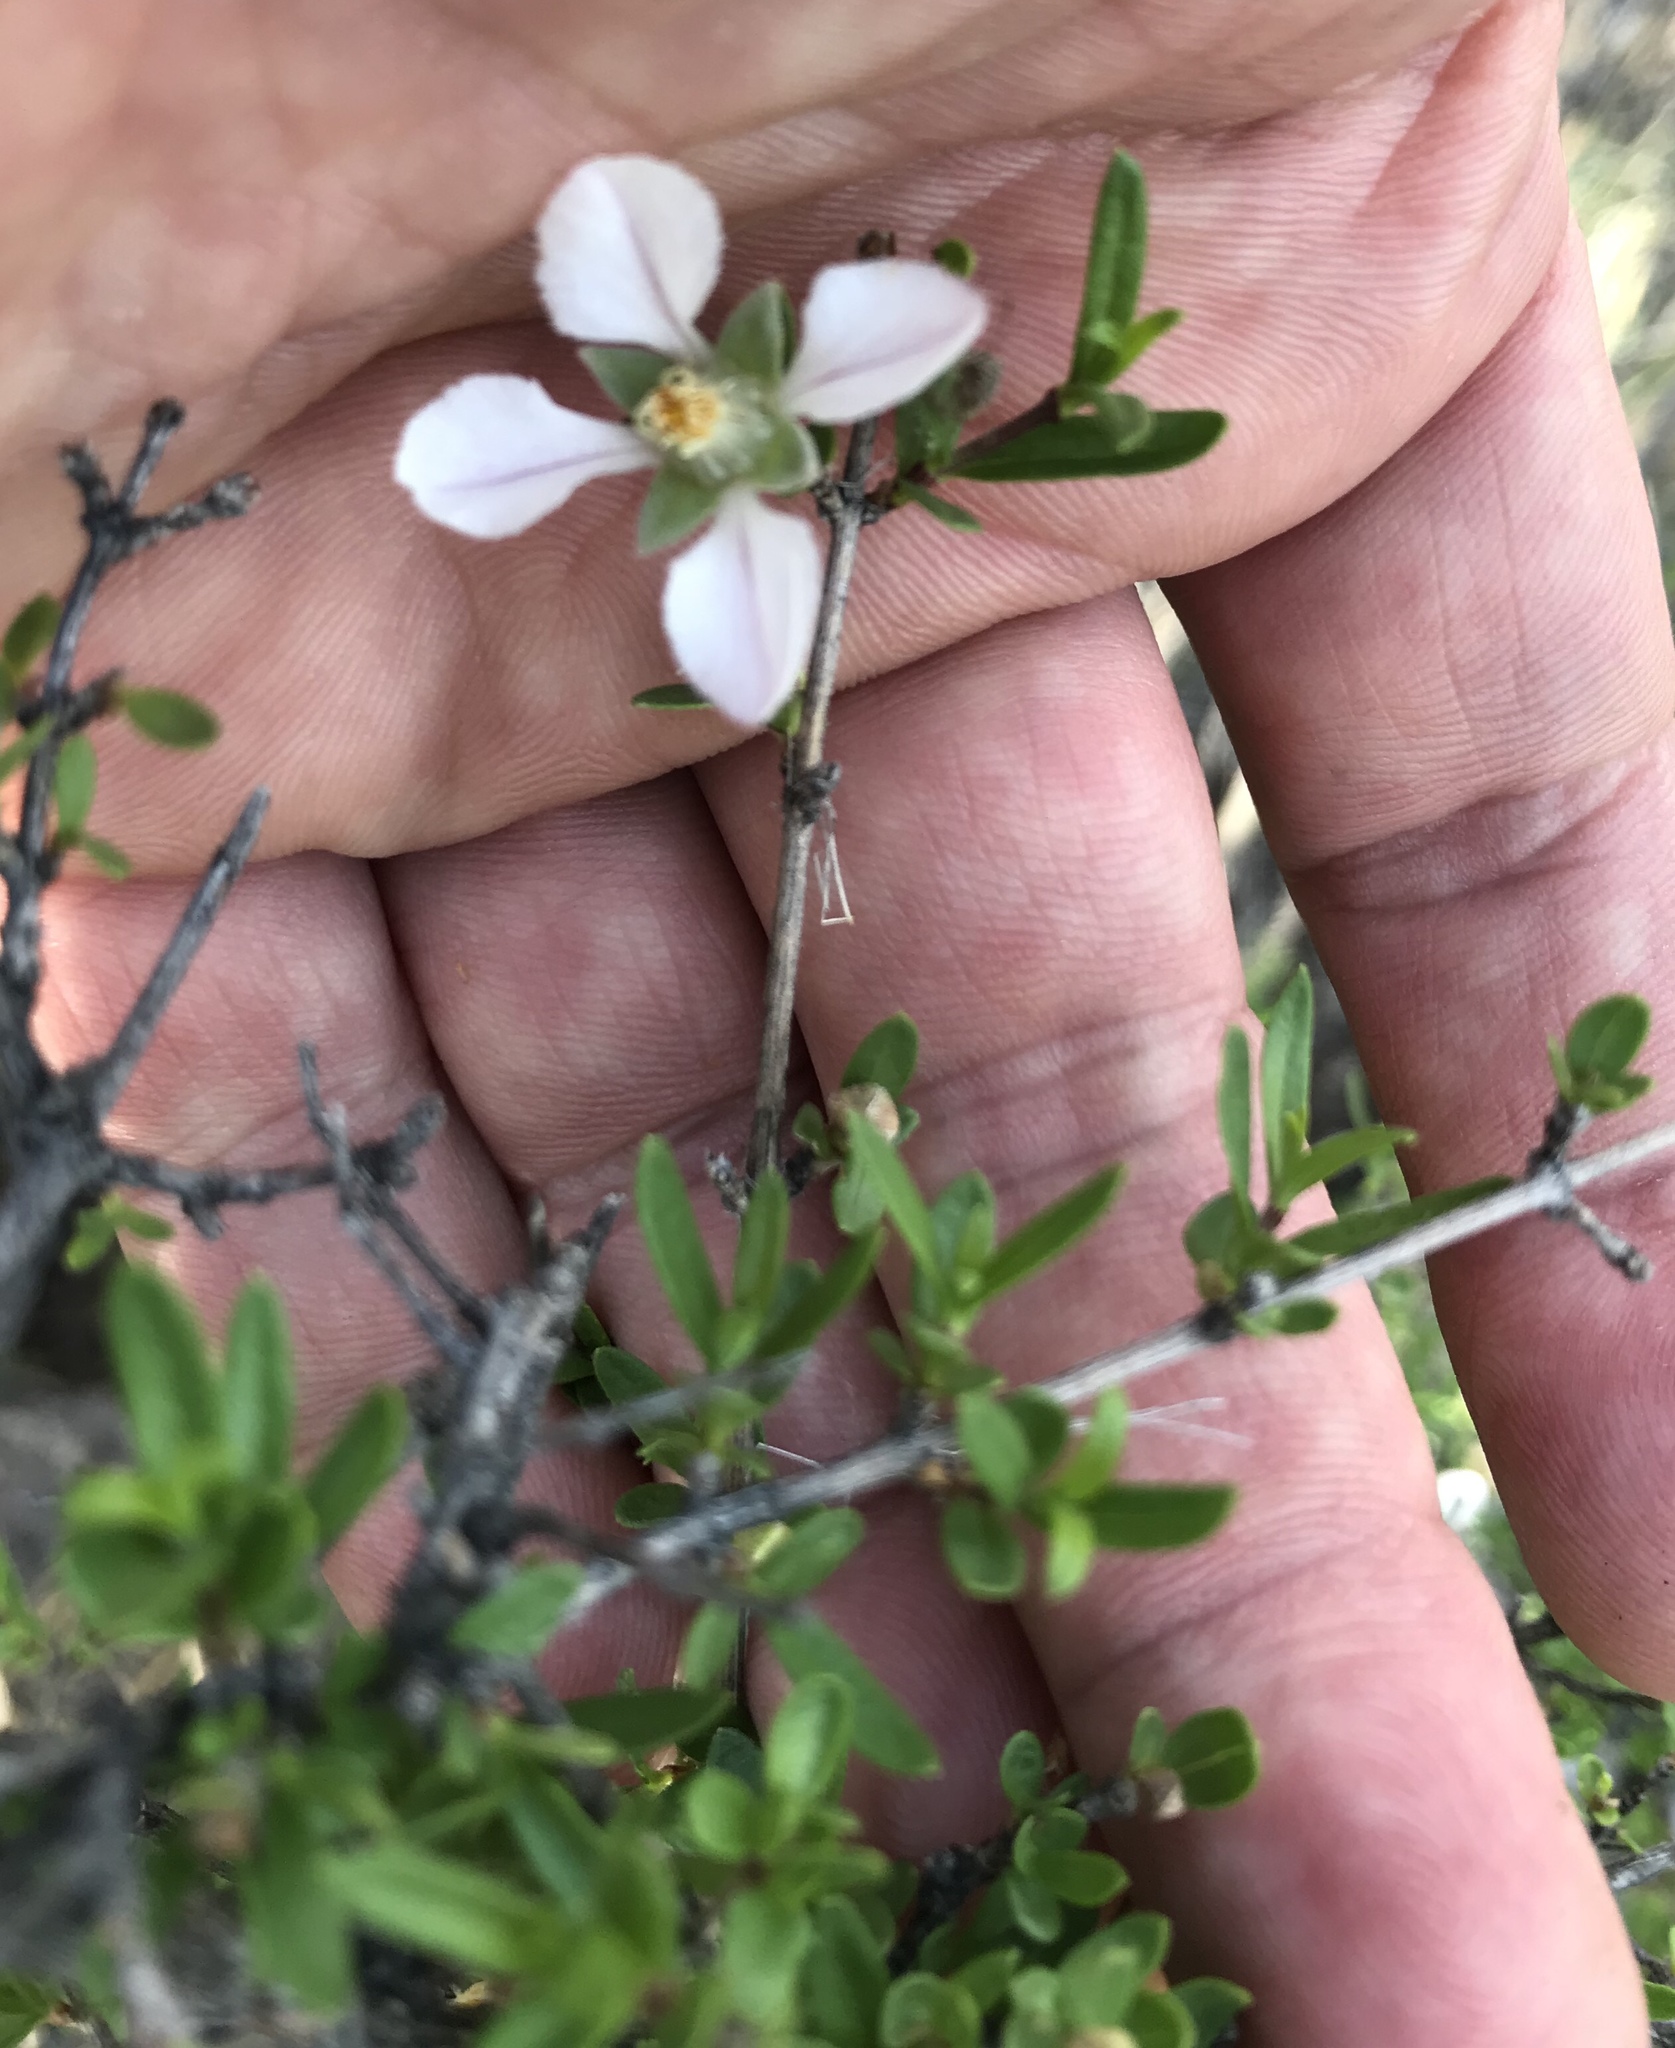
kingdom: Plantae
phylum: Tracheophyta
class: Magnoliopsida
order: Cornales
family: Hydrangeaceae
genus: Fendlera
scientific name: Fendlera rupicola
